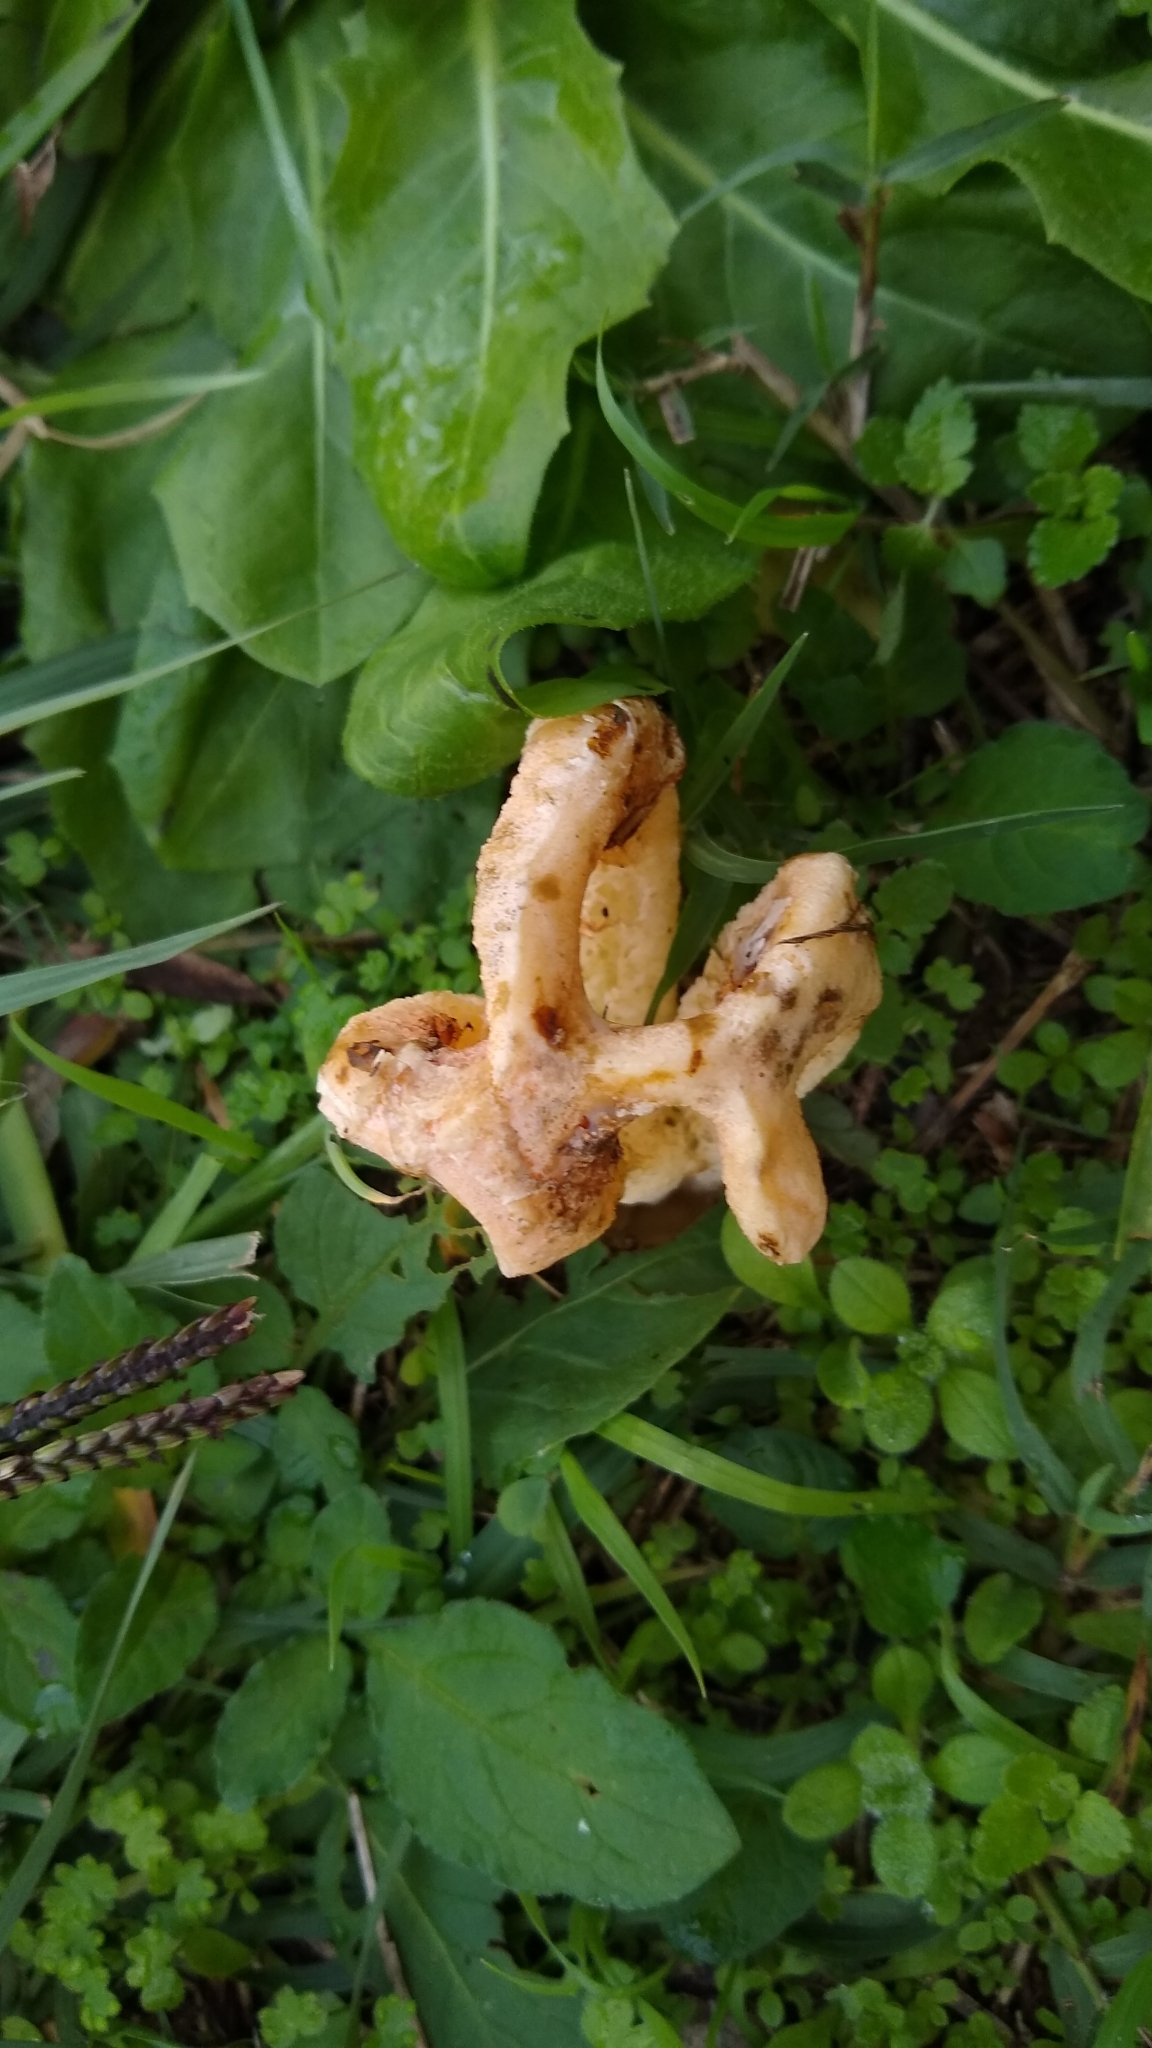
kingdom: Fungi
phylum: Basidiomycota
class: Agaricomycetes
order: Phallales
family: Phallaceae
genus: Clathrus
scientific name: Clathrus columnatus
